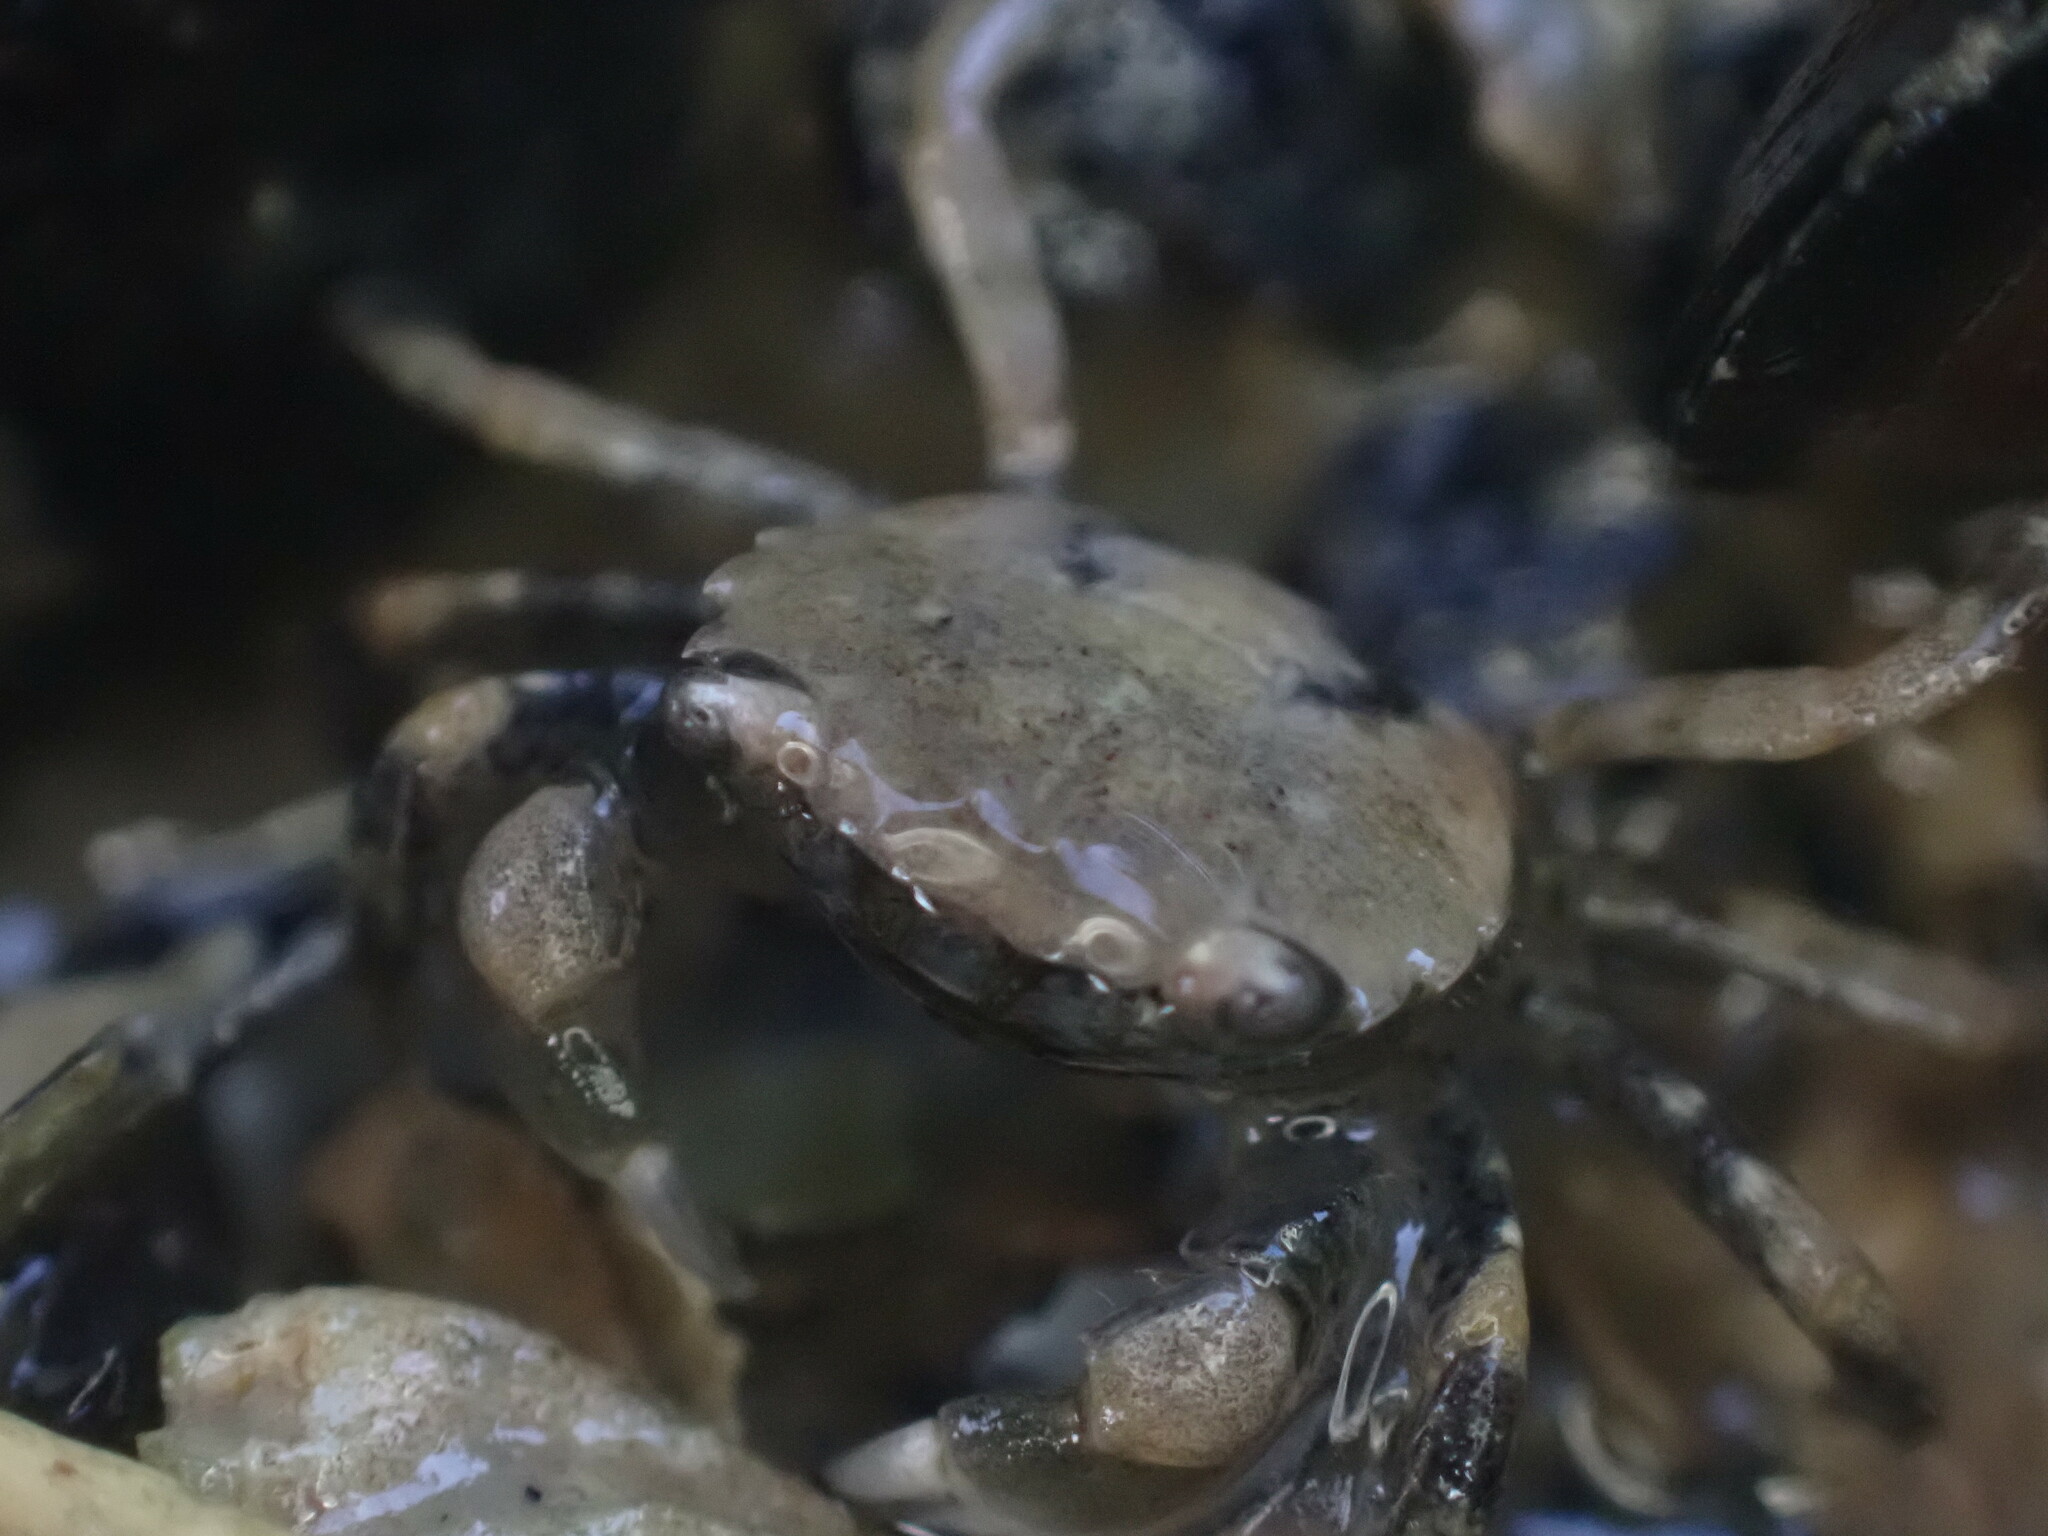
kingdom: Animalia
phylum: Arthropoda
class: Malacostraca
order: Decapoda
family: Varunidae
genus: Hemigrapsus
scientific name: Hemigrapsus oregonensis
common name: Yellow shore crab
